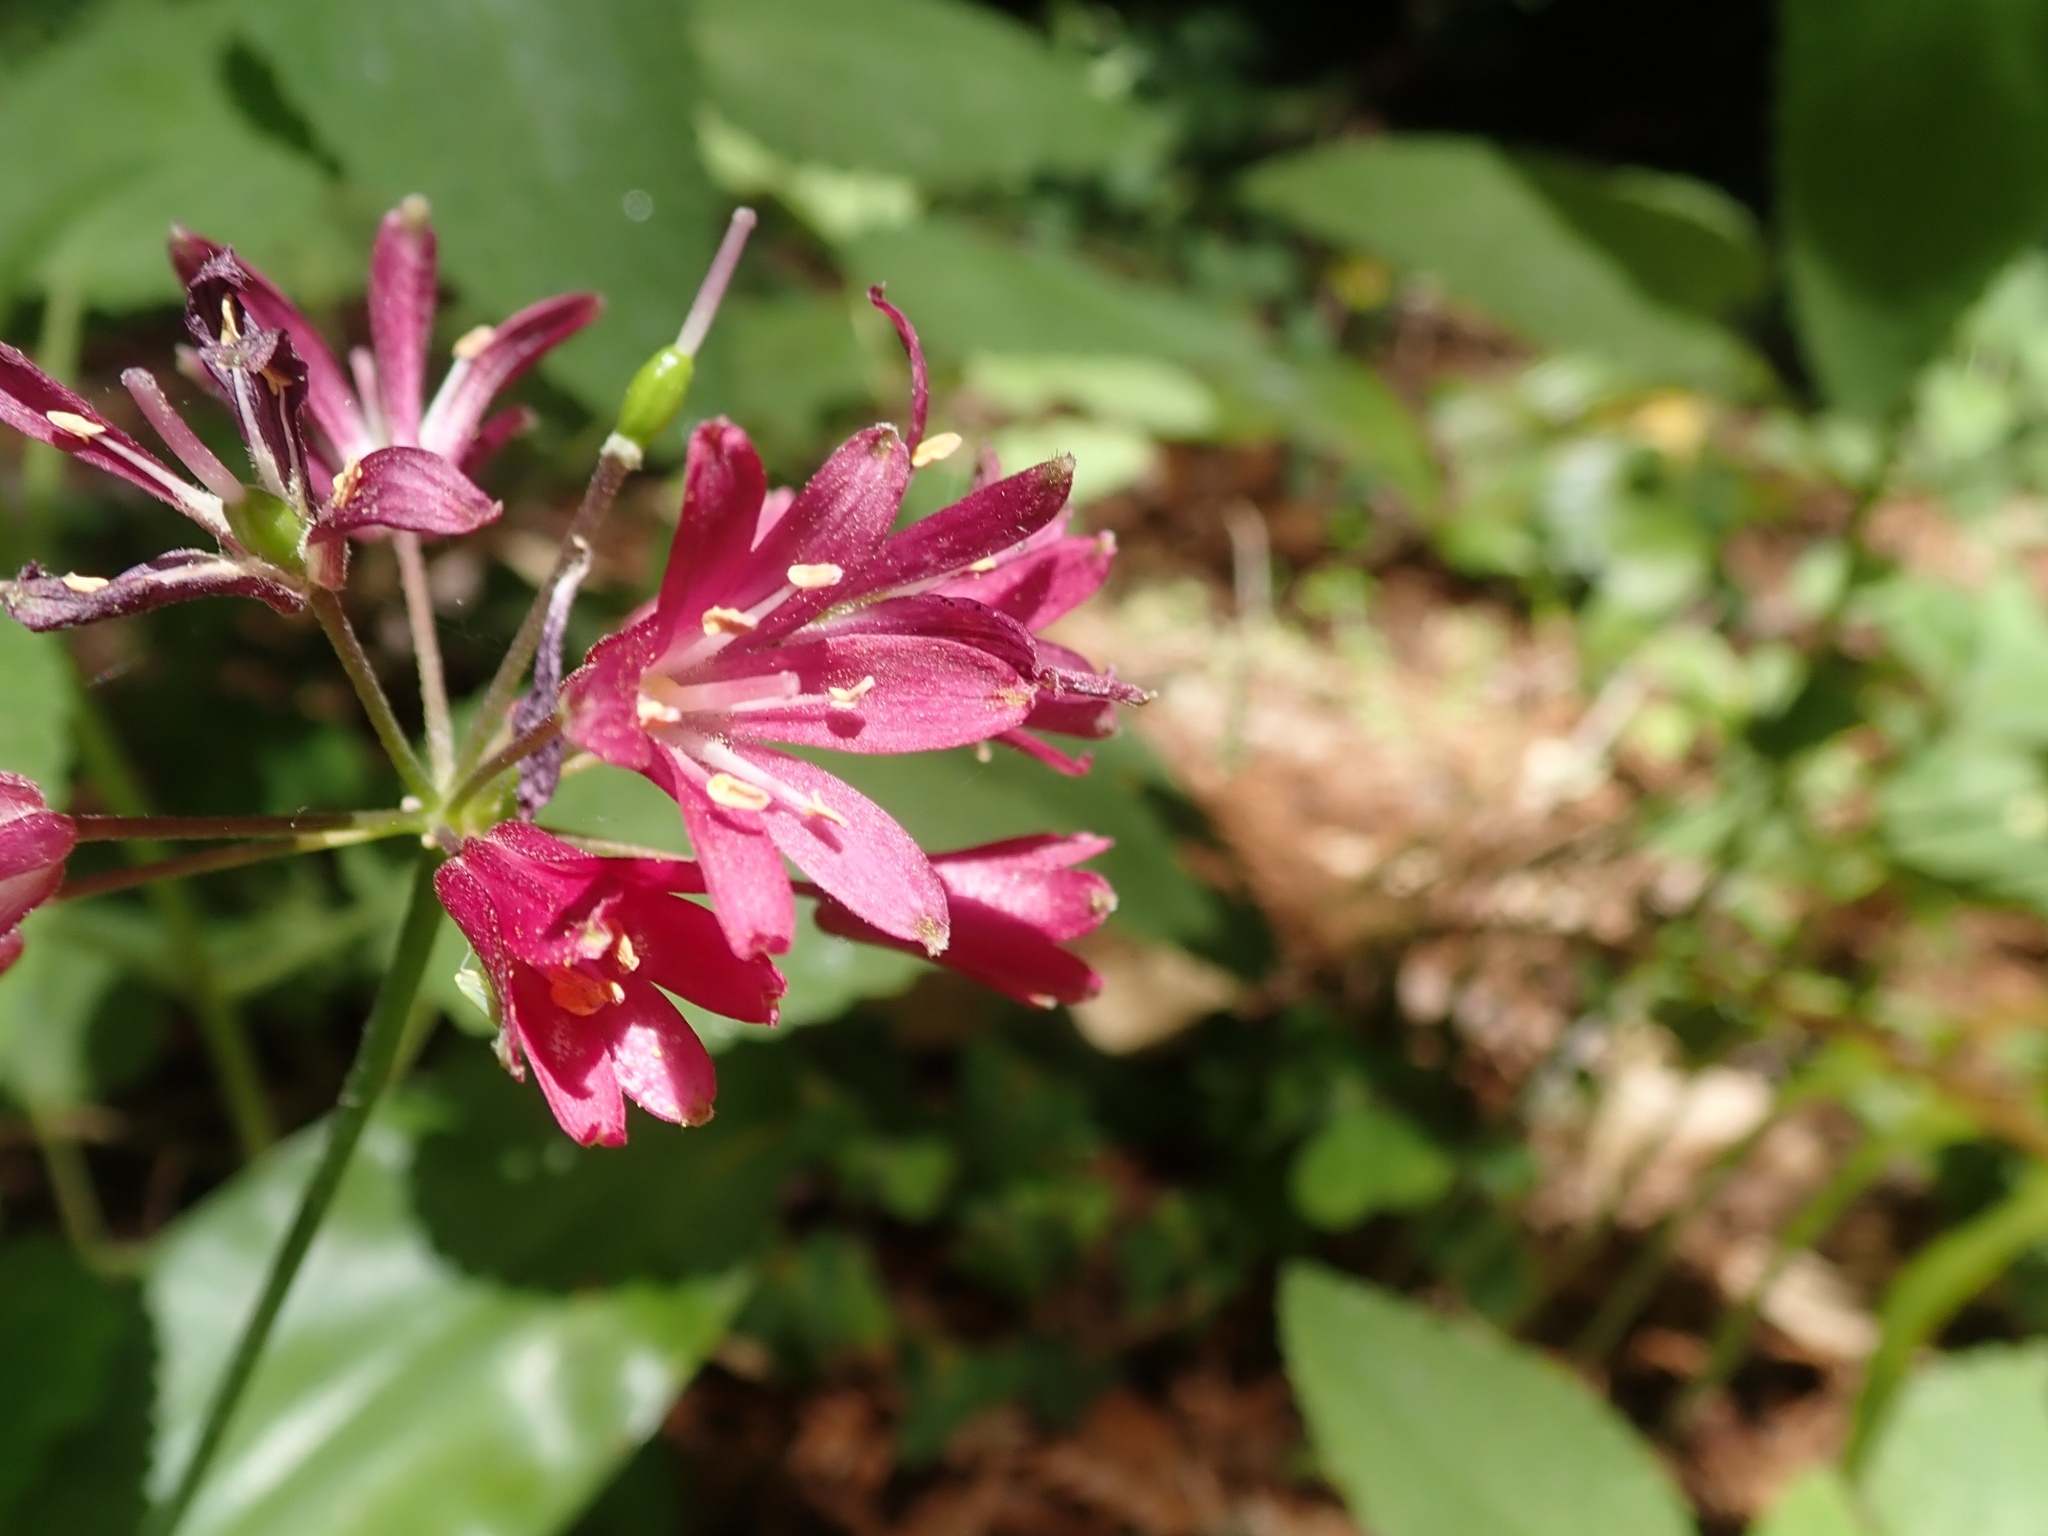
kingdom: Plantae
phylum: Tracheophyta
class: Liliopsida
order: Liliales
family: Liliaceae
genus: Clintonia
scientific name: Clintonia andrewsiana
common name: Red clintonia
